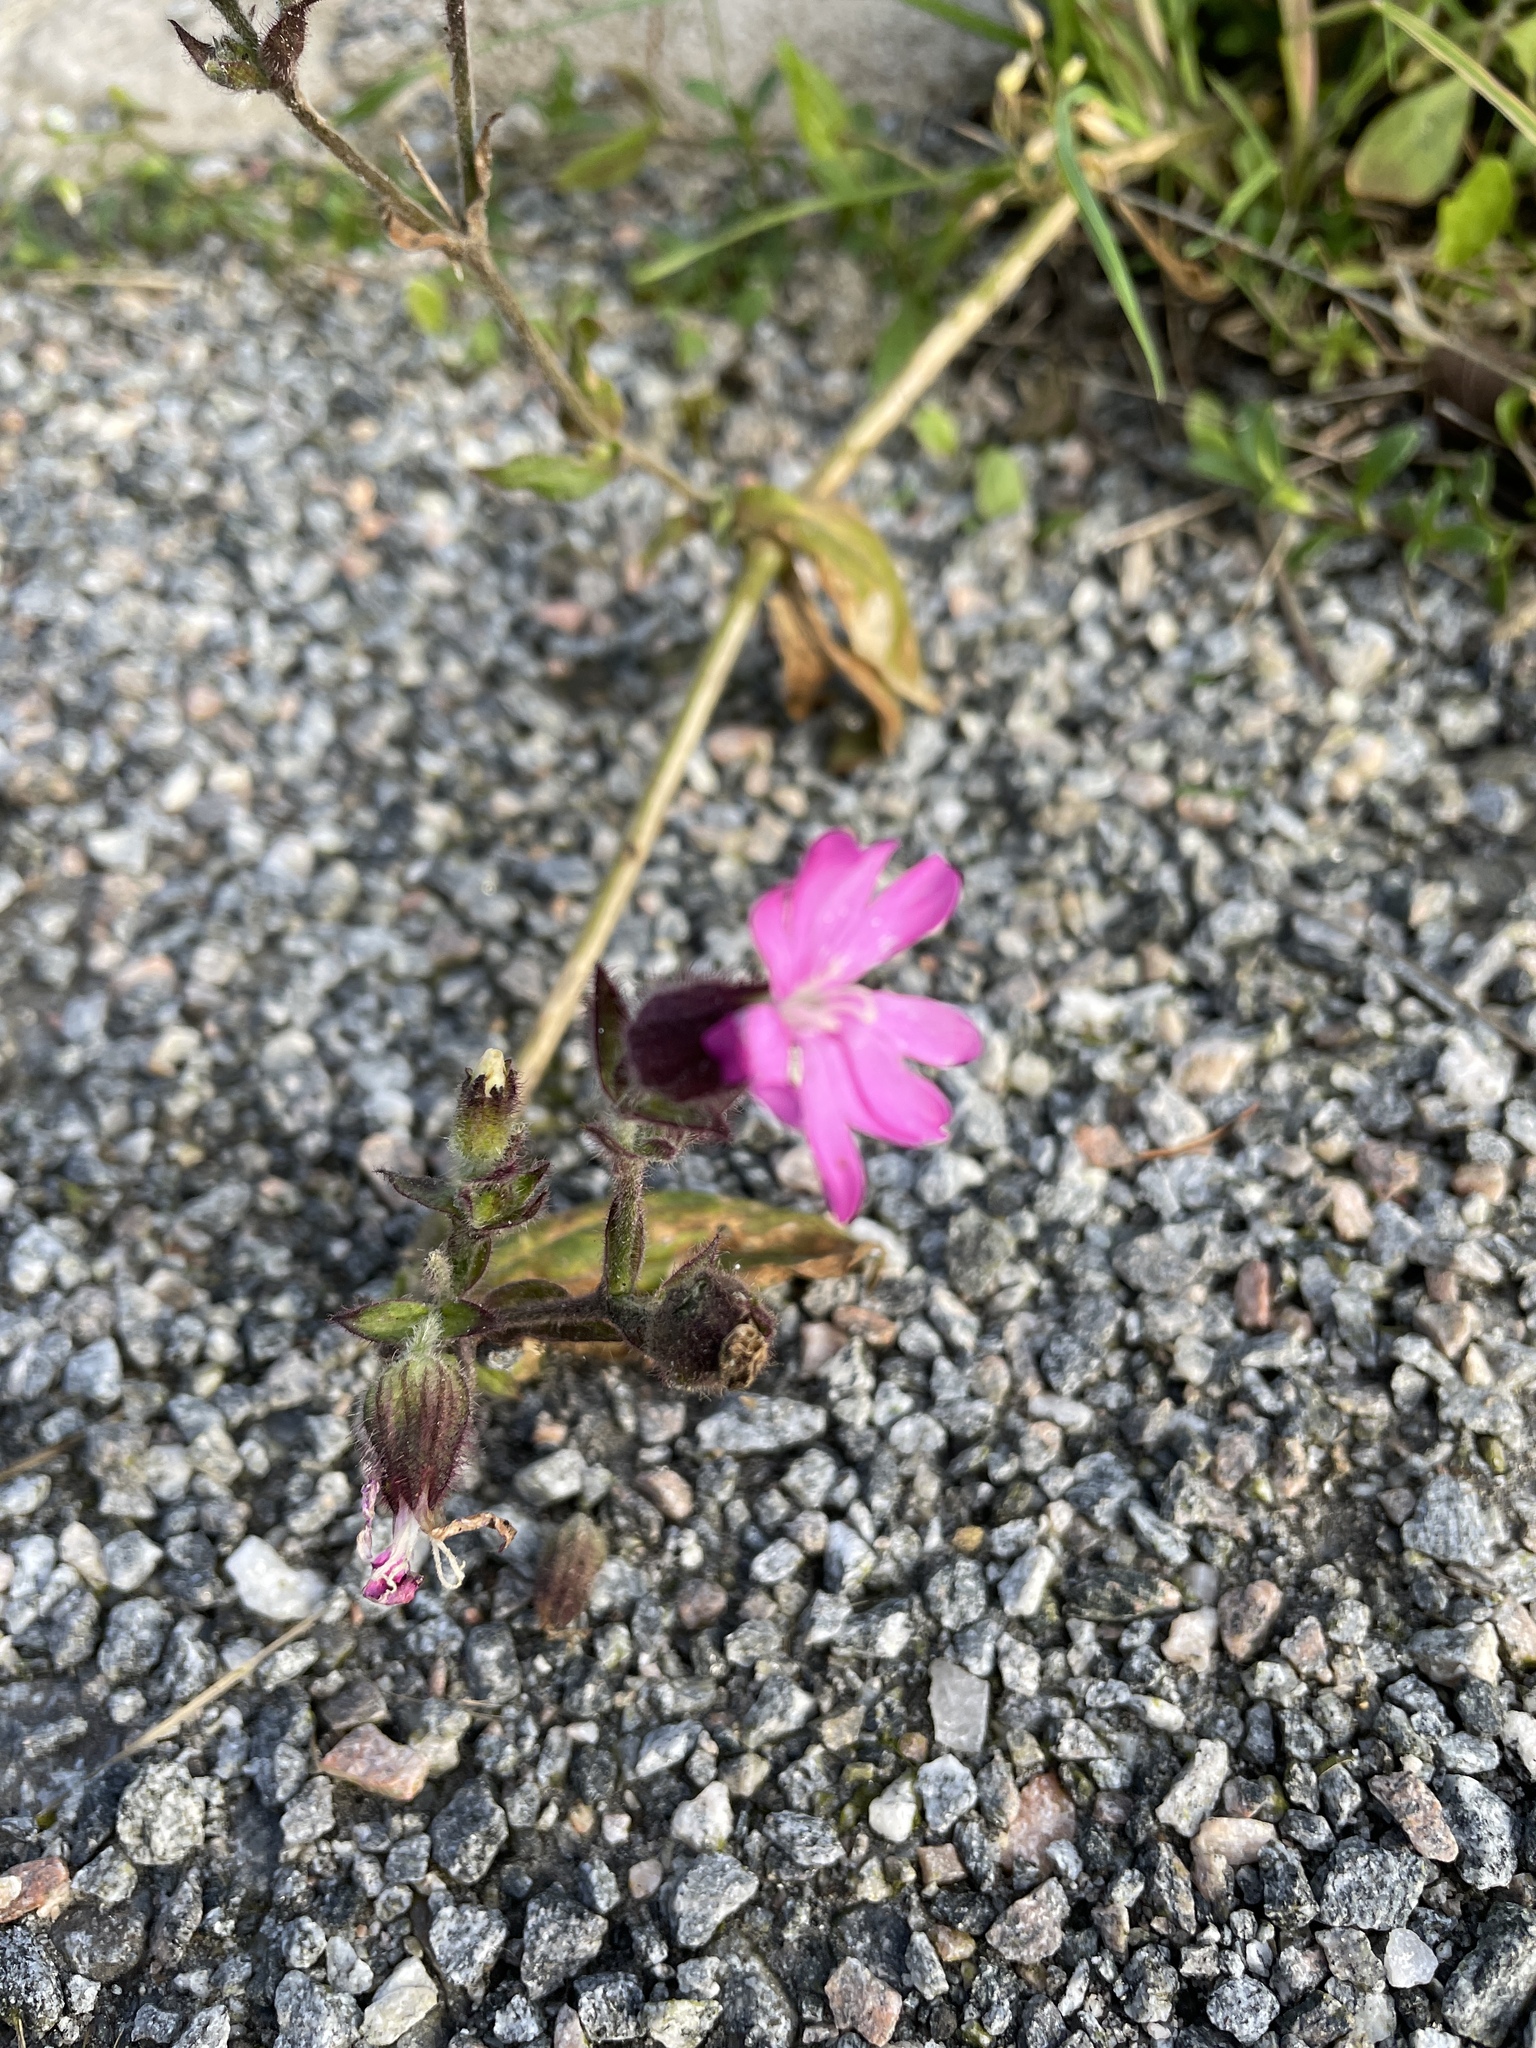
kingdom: Plantae
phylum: Tracheophyta
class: Magnoliopsida
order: Caryophyllales
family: Caryophyllaceae
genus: Silene
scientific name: Silene dioica
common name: Red campion
